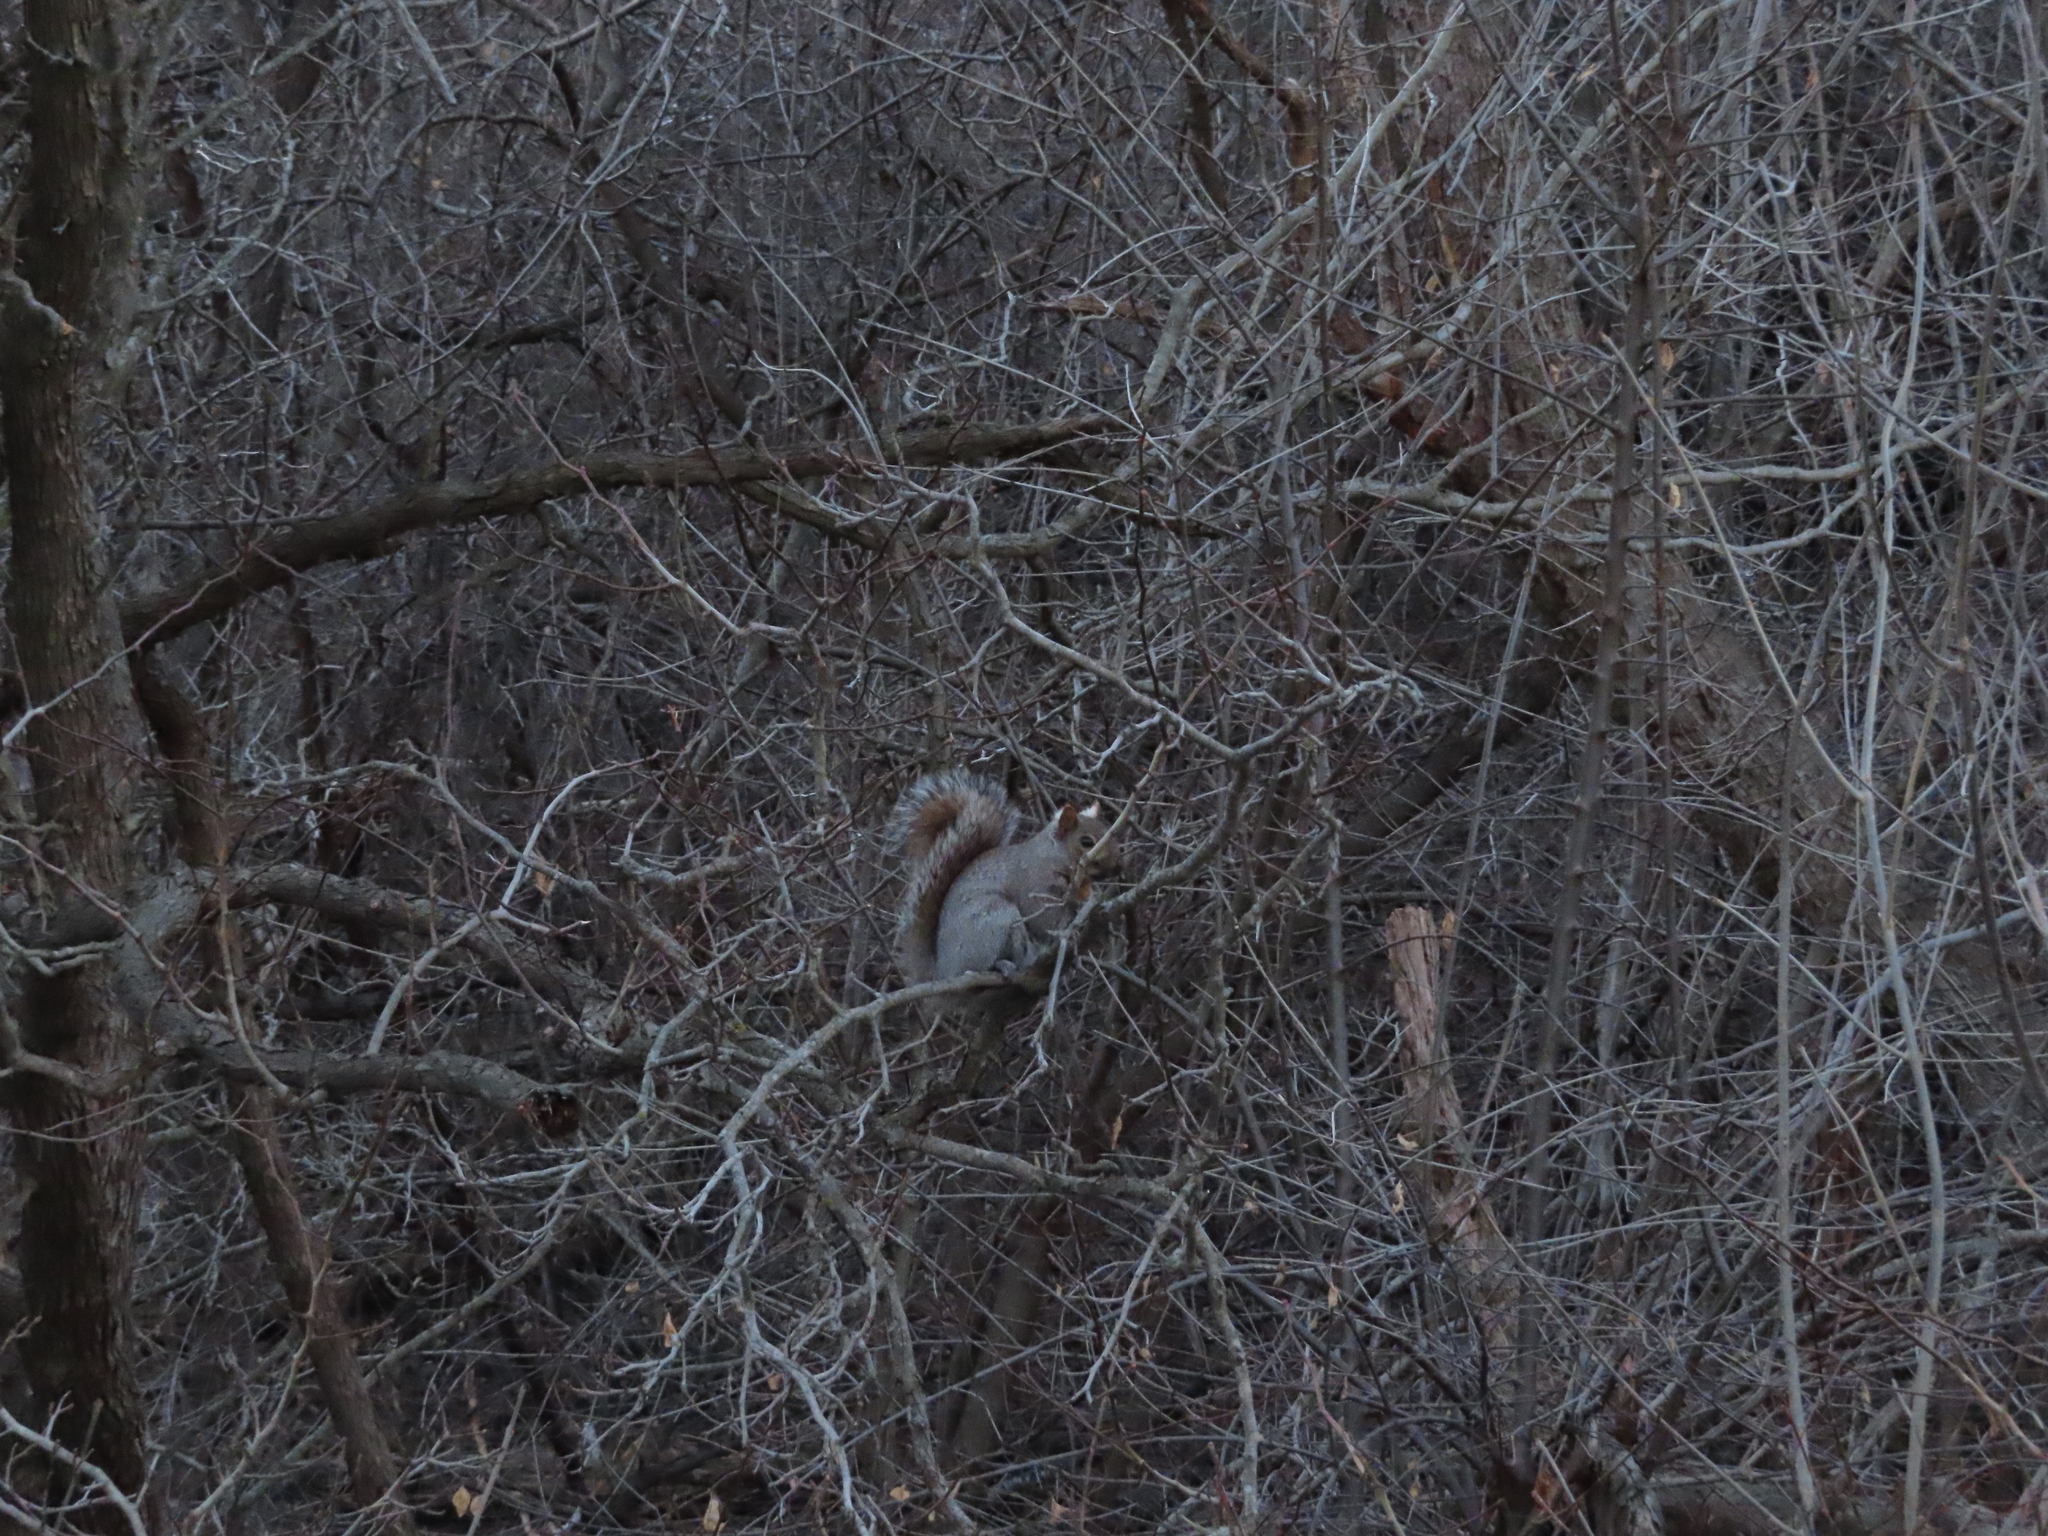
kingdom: Animalia
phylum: Chordata
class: Mammalia
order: Rodentia
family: Sciuridae
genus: Sciurus
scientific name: Sciurus carolinensis
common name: Eastern gray squirrel
